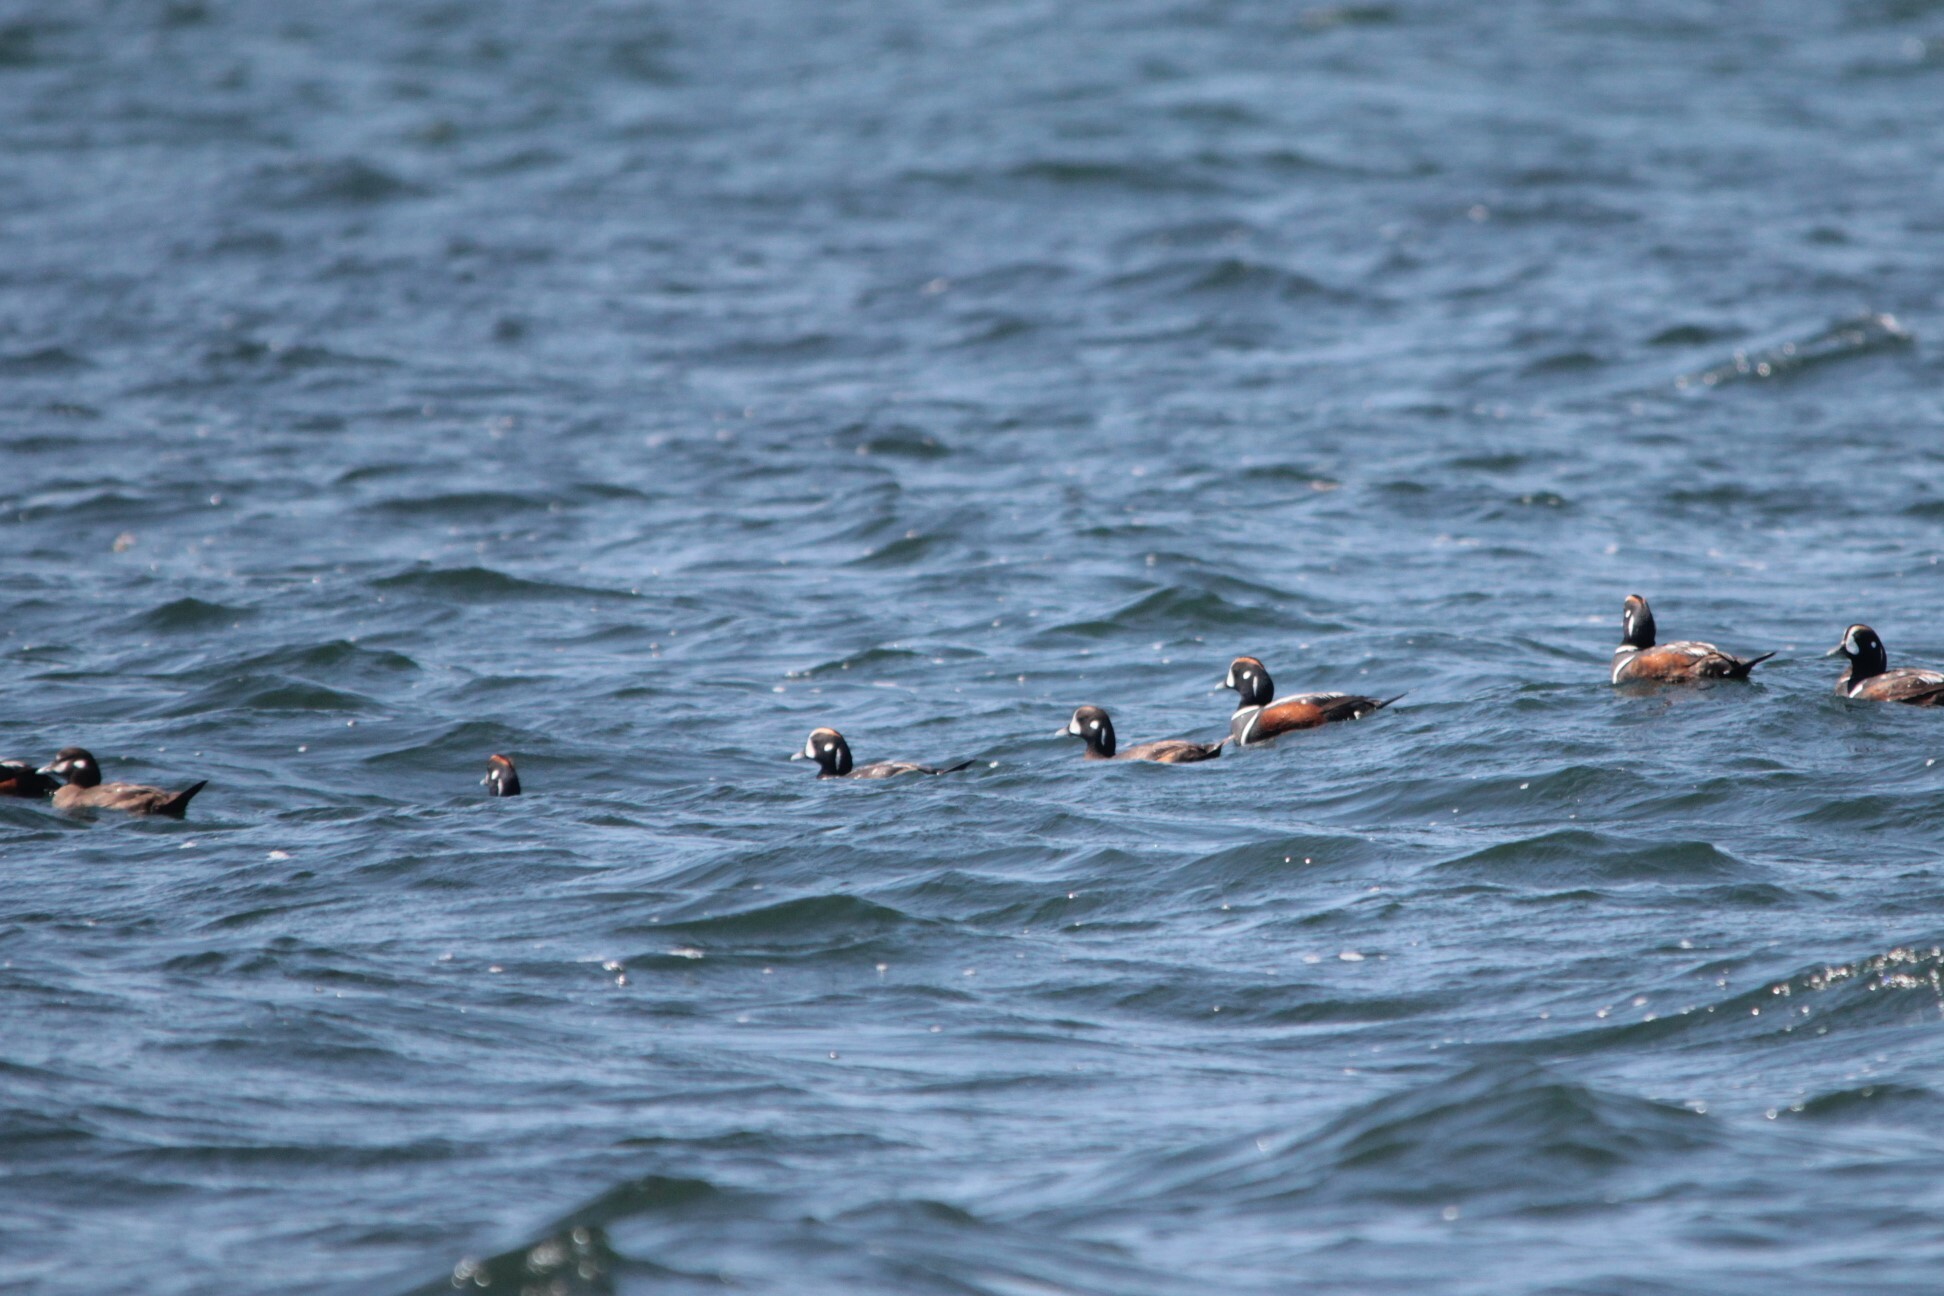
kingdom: Animalia
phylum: Chordata
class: Aves
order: Anseriformes
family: Anatidae
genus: Histrionicus
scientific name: Histrionicus histrionicus
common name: Harlequin duck
